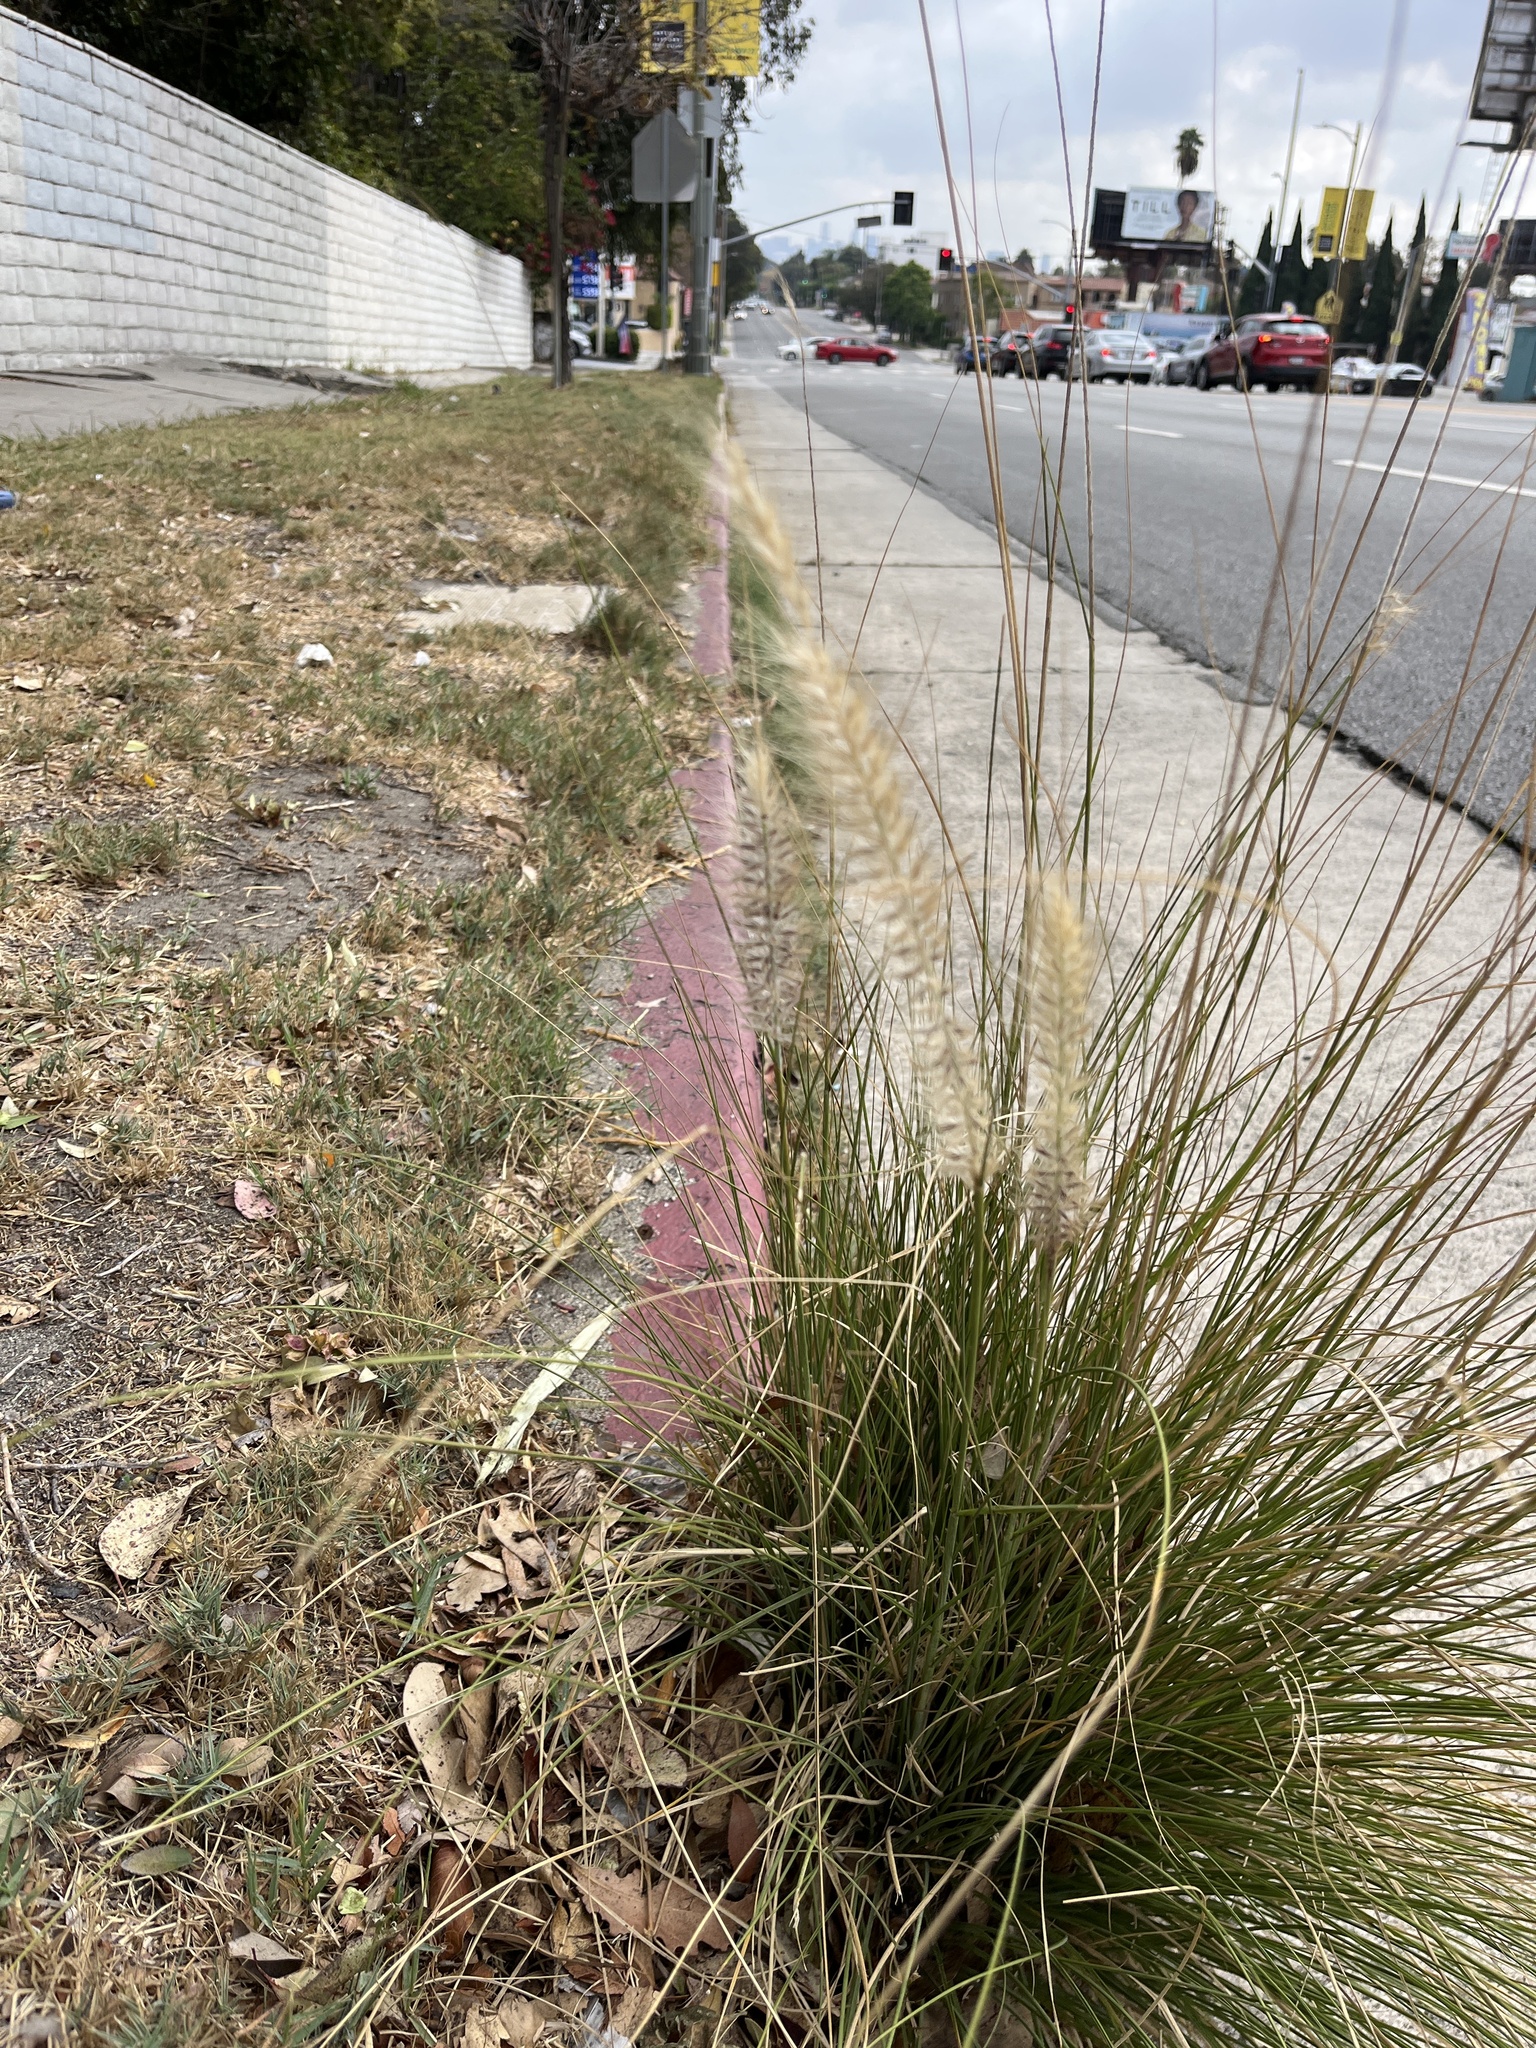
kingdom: Plantae
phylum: Tracheophyta
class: Liliopsida
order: Poales
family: Poaceae
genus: Cenchrus
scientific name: Cenchrus setaceus
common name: Crimson fountaingrass
